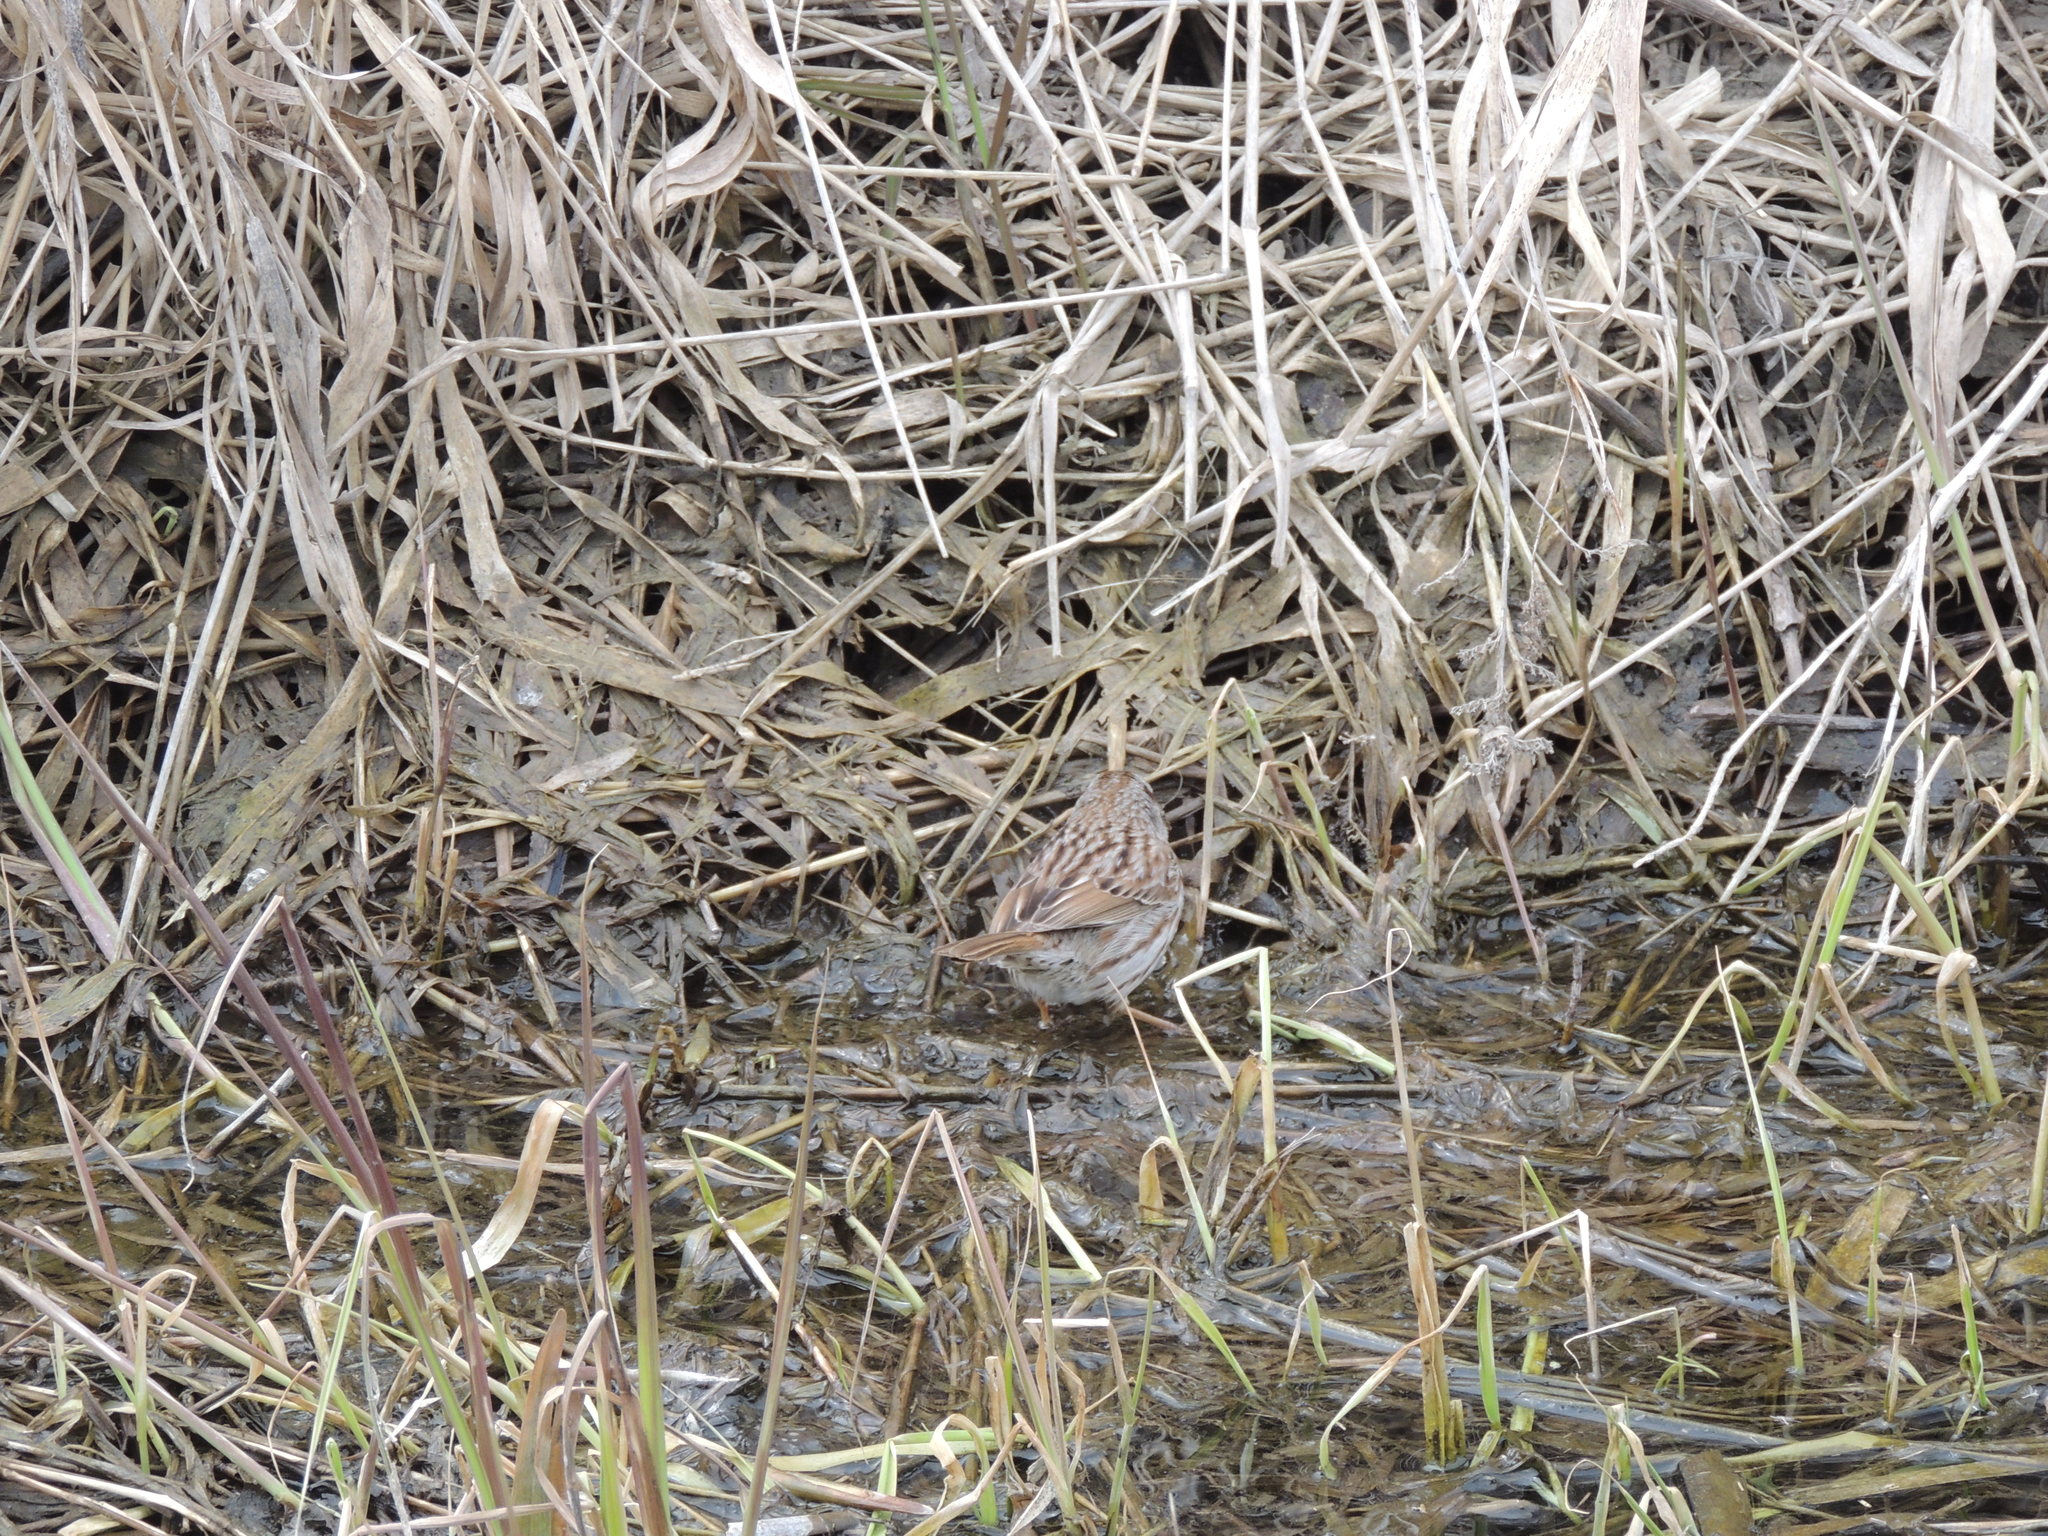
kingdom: Animalia
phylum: Chordata
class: Aves
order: Passeriformes
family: Passerellidae
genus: Melospiza
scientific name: Melospiza melodia
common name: Song sparrow
